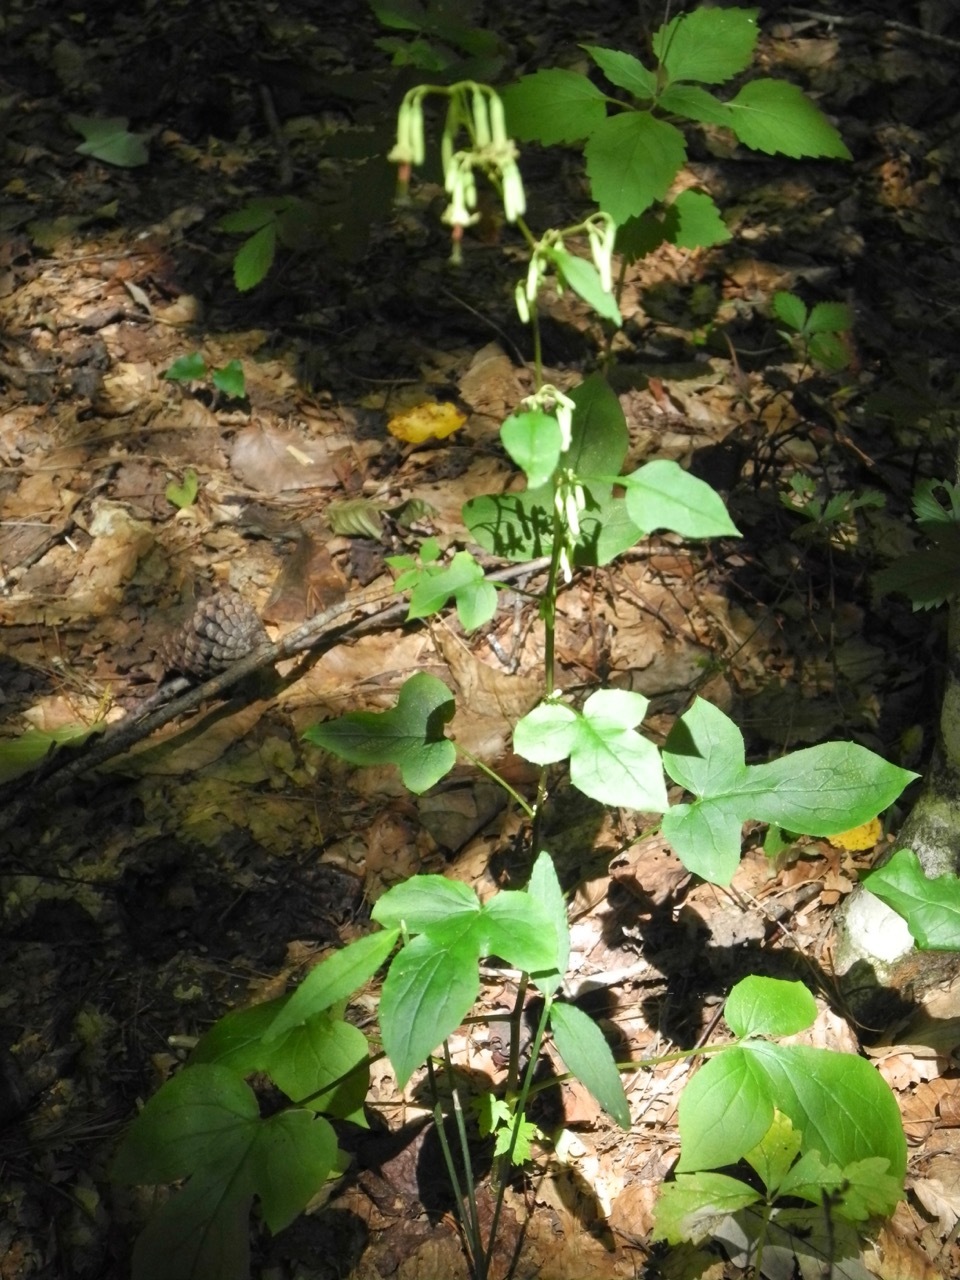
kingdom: Plantae
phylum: Tracheophyta
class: Magnoliopsida
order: Asterales
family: Asteraceae
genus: Nabalus
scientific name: Nabalus altissima
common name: Tall rattlesnakeroot
